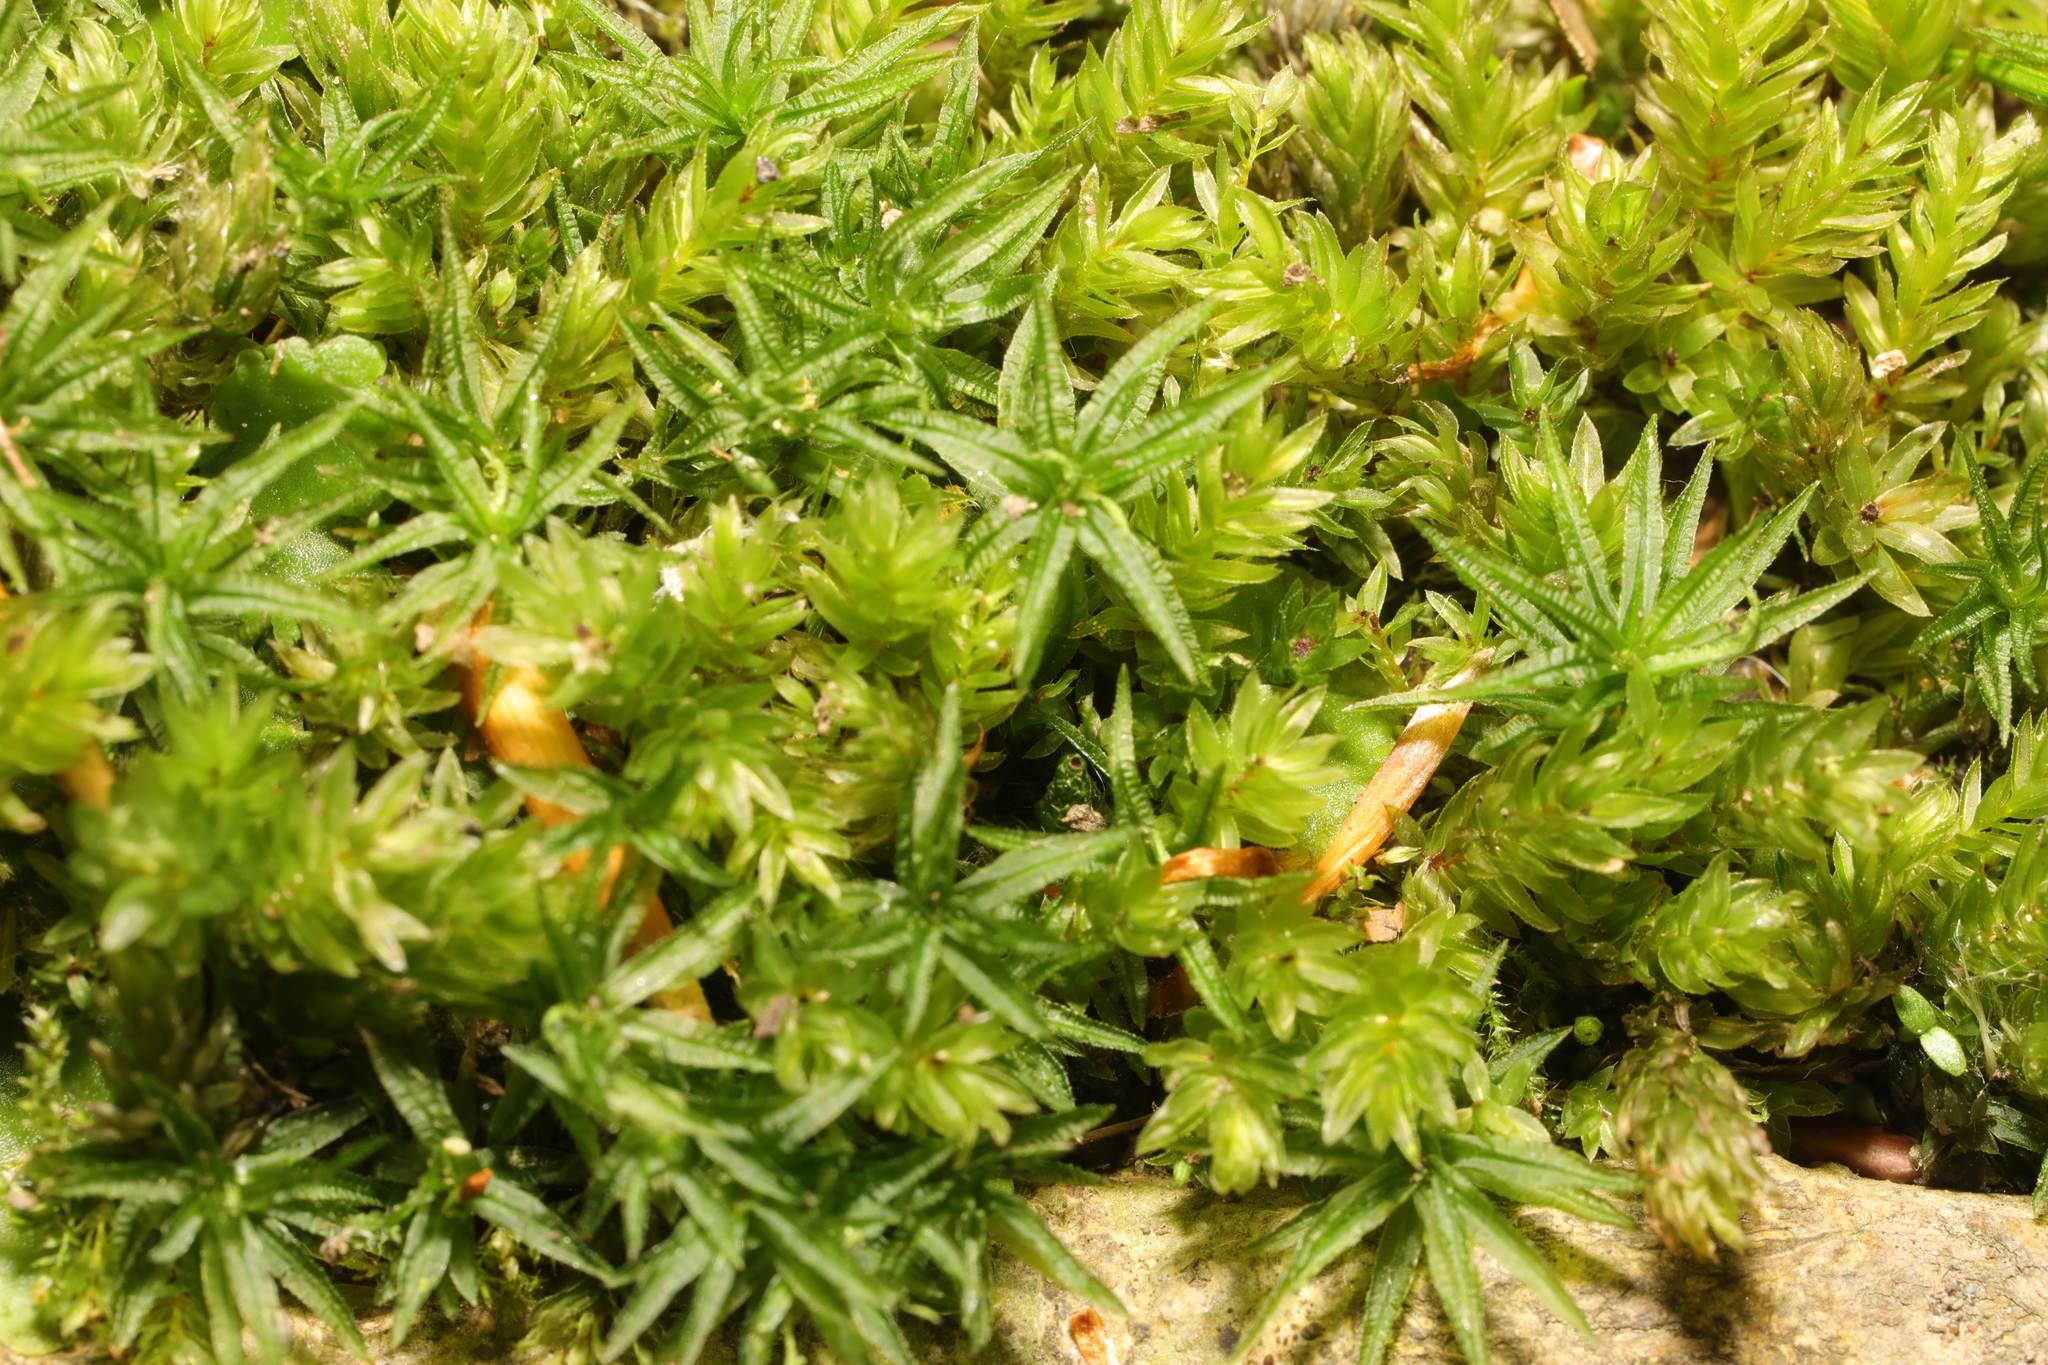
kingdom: Plantae
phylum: Bryophyta
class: Polytrichopsida
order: Polytrichales
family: Polytrichaceae
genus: Atrichum
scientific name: Atrichum undulatum
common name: Common smoothcap
